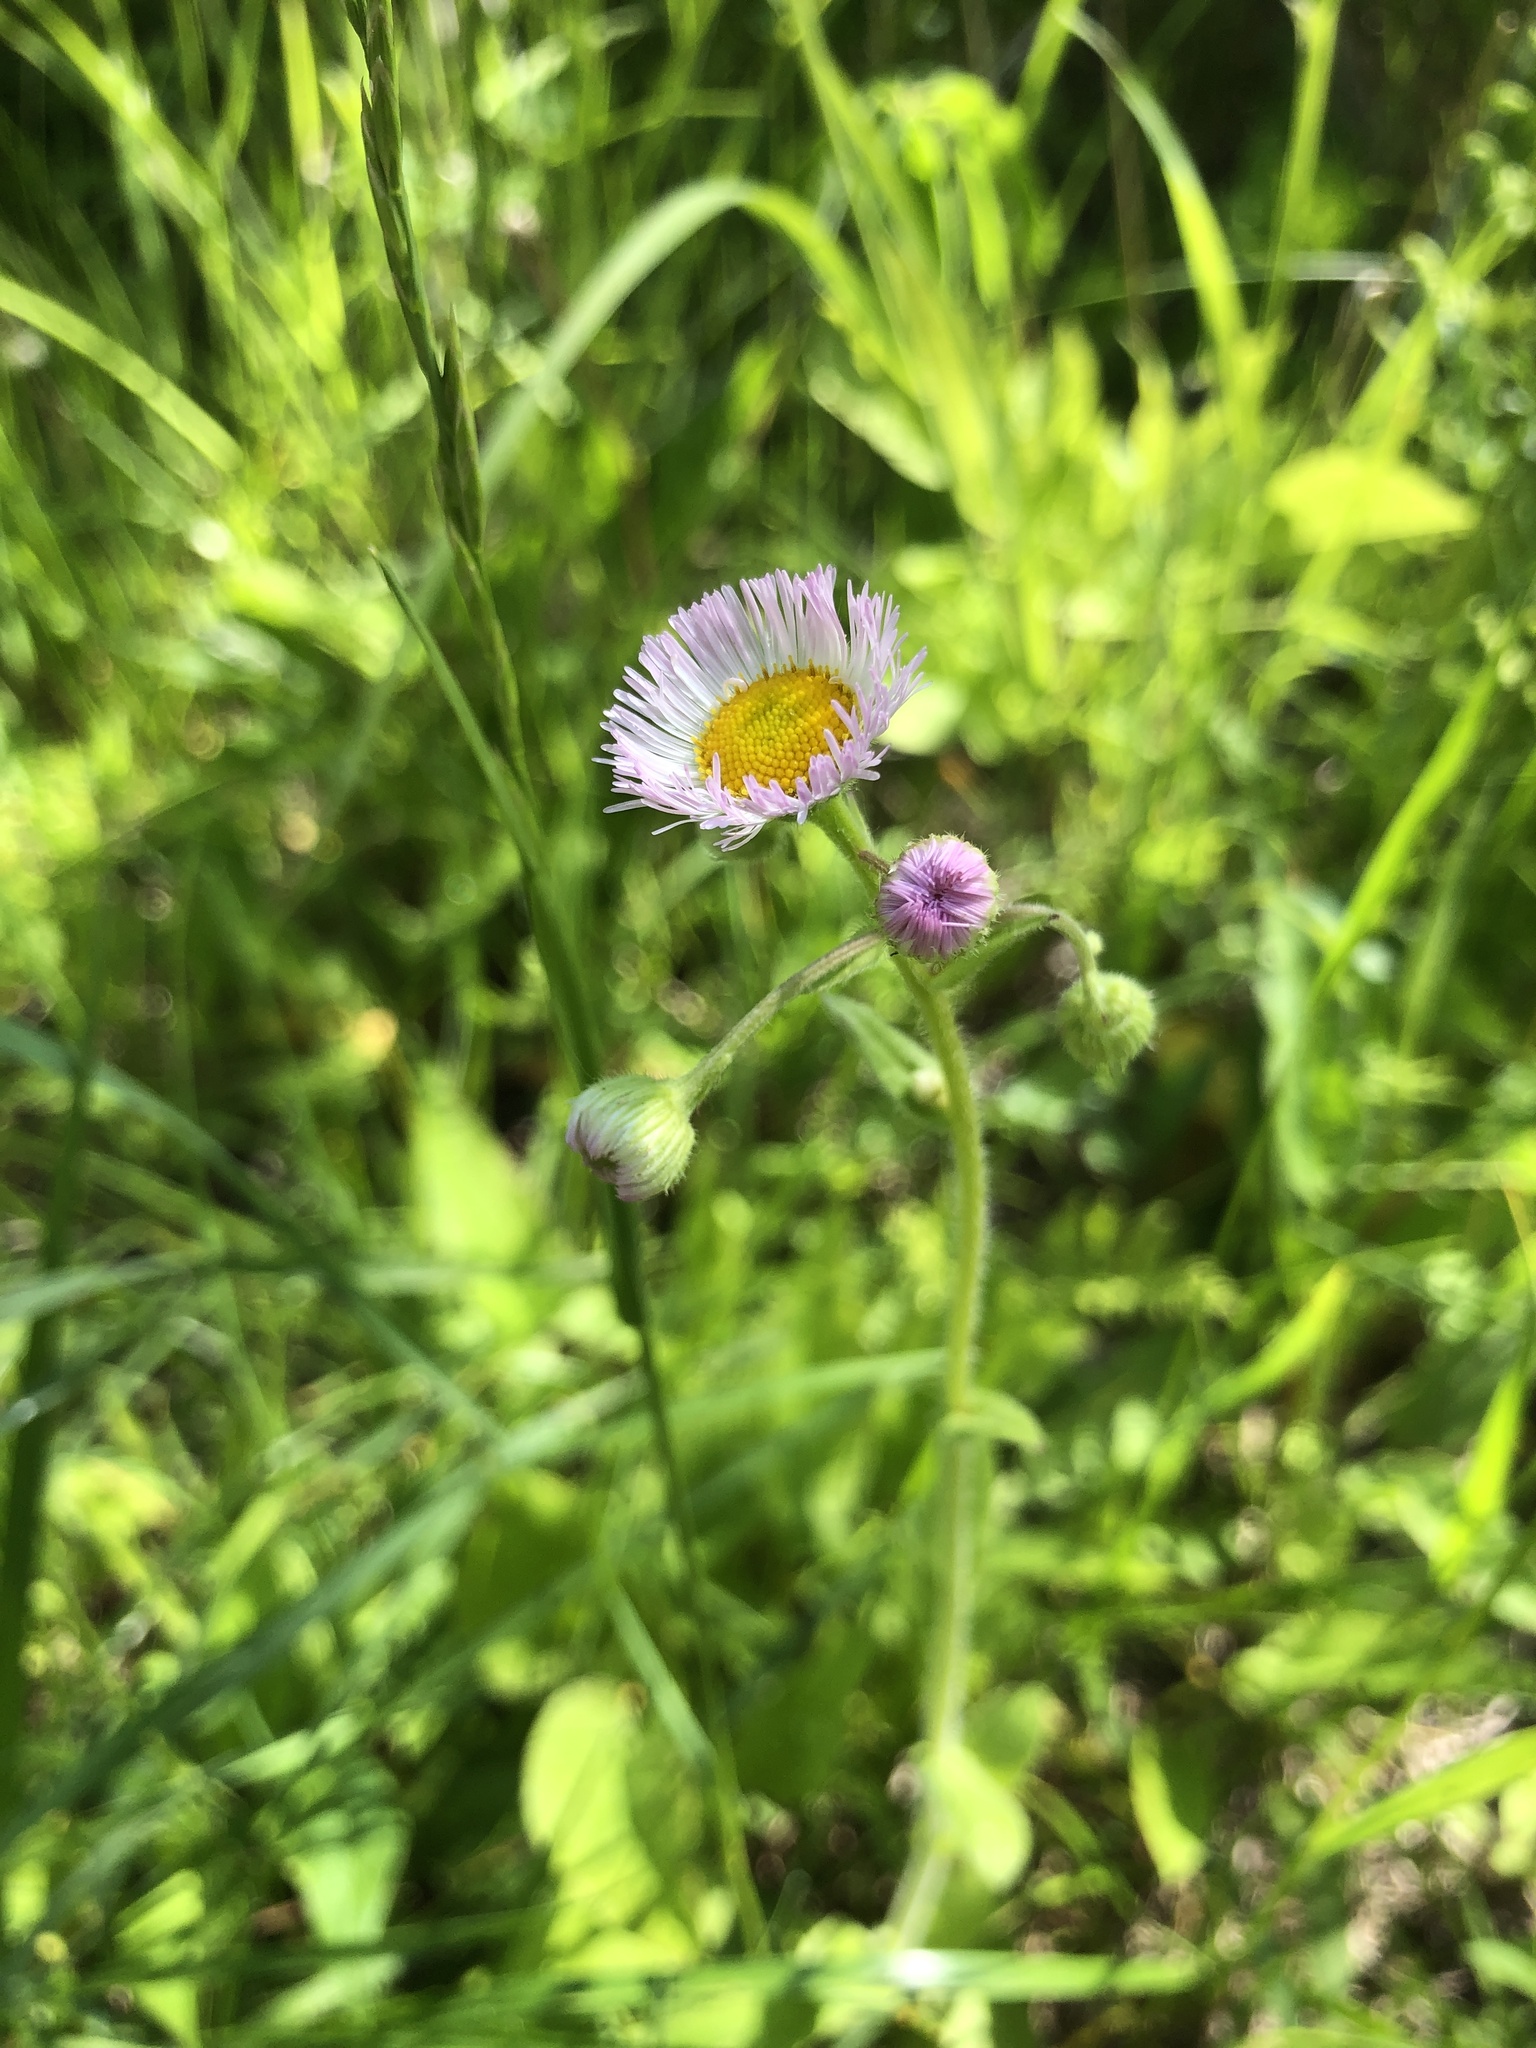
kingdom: Plantae
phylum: Tracheophyta
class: Magnoliopsida
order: Asterales
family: Asteraceae
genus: Erigeron
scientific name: Erigeron philadelphicus
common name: Robin's-plantain
